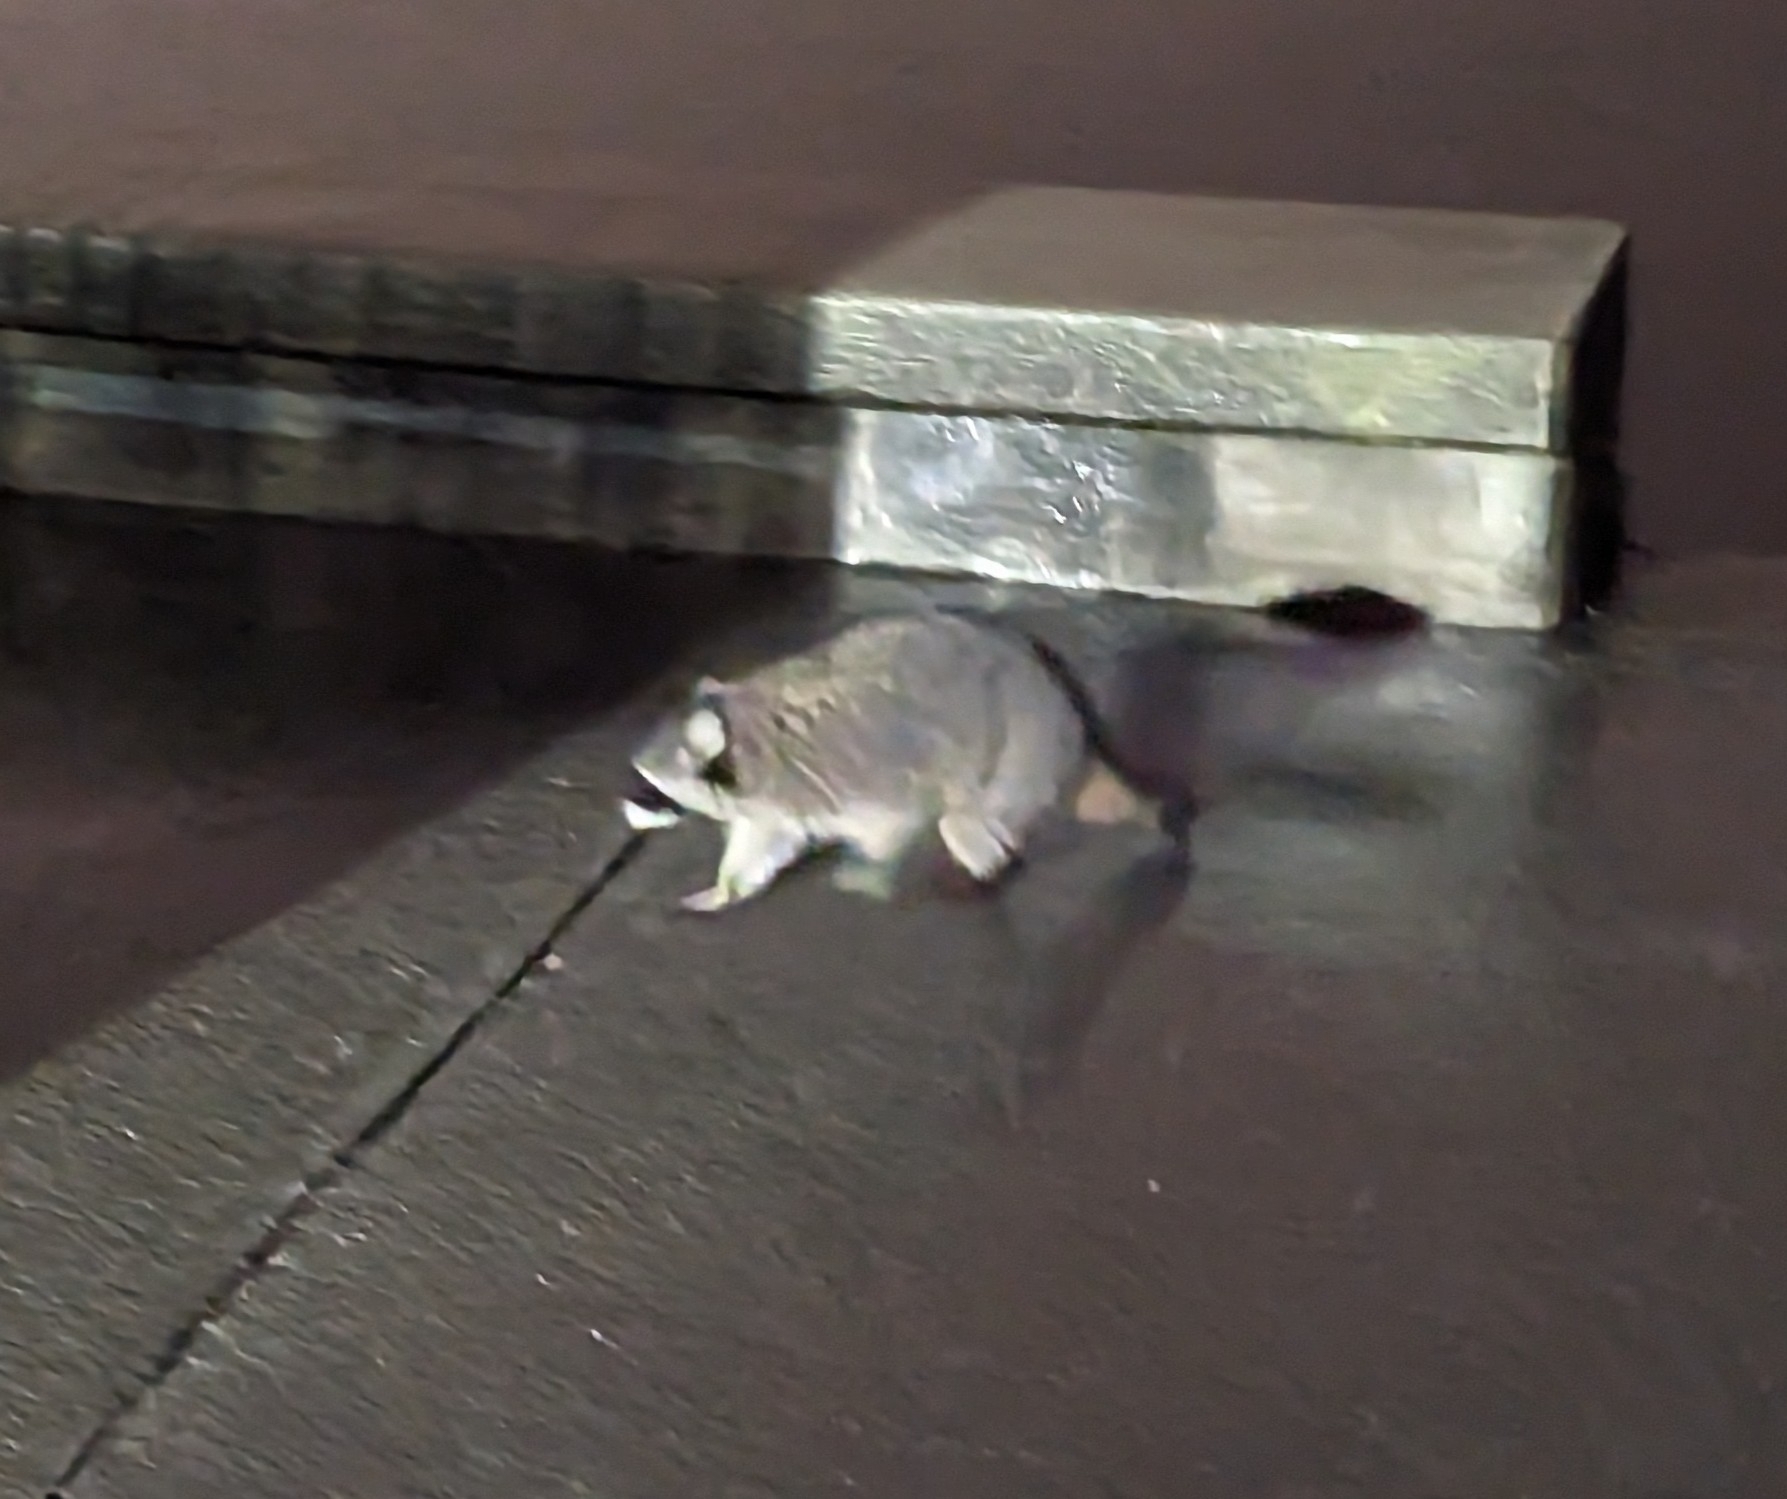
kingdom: Animalia
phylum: Chordata
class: Mammalia
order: Carnivora
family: Procyonidae
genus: Procyon
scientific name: Procyon lotor
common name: Raccoon
